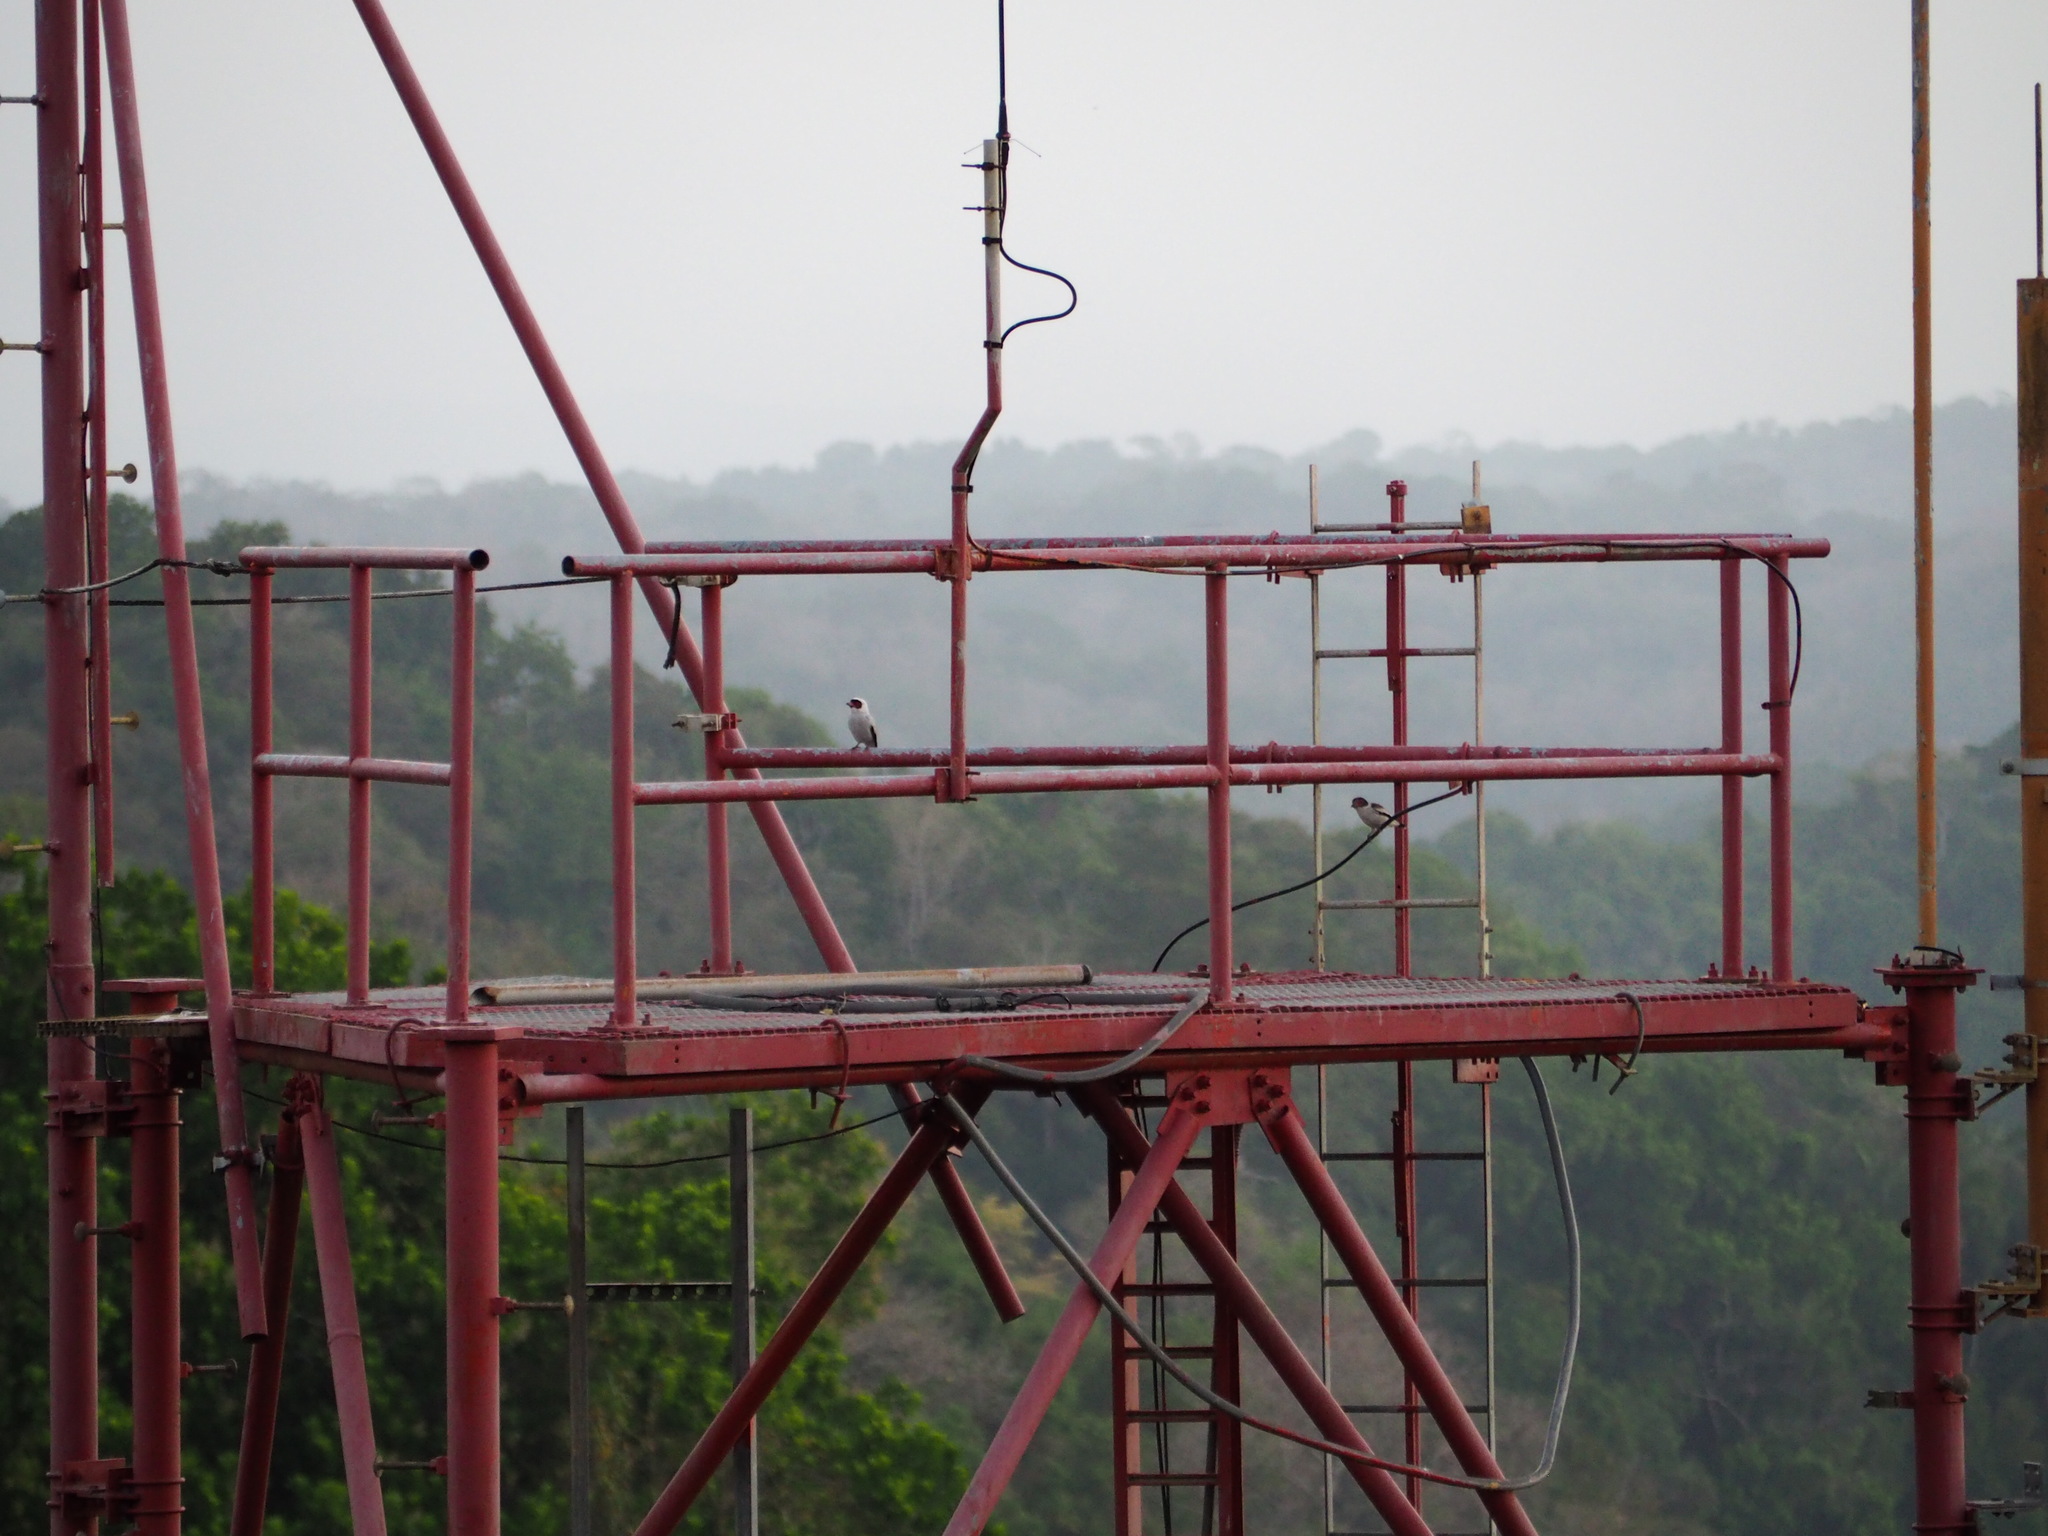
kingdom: Animalia
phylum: Chordata
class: Aves
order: Passeriformes
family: Cotingidae
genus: Tityra
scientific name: Tityra semifasciata
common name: Masked tityra
